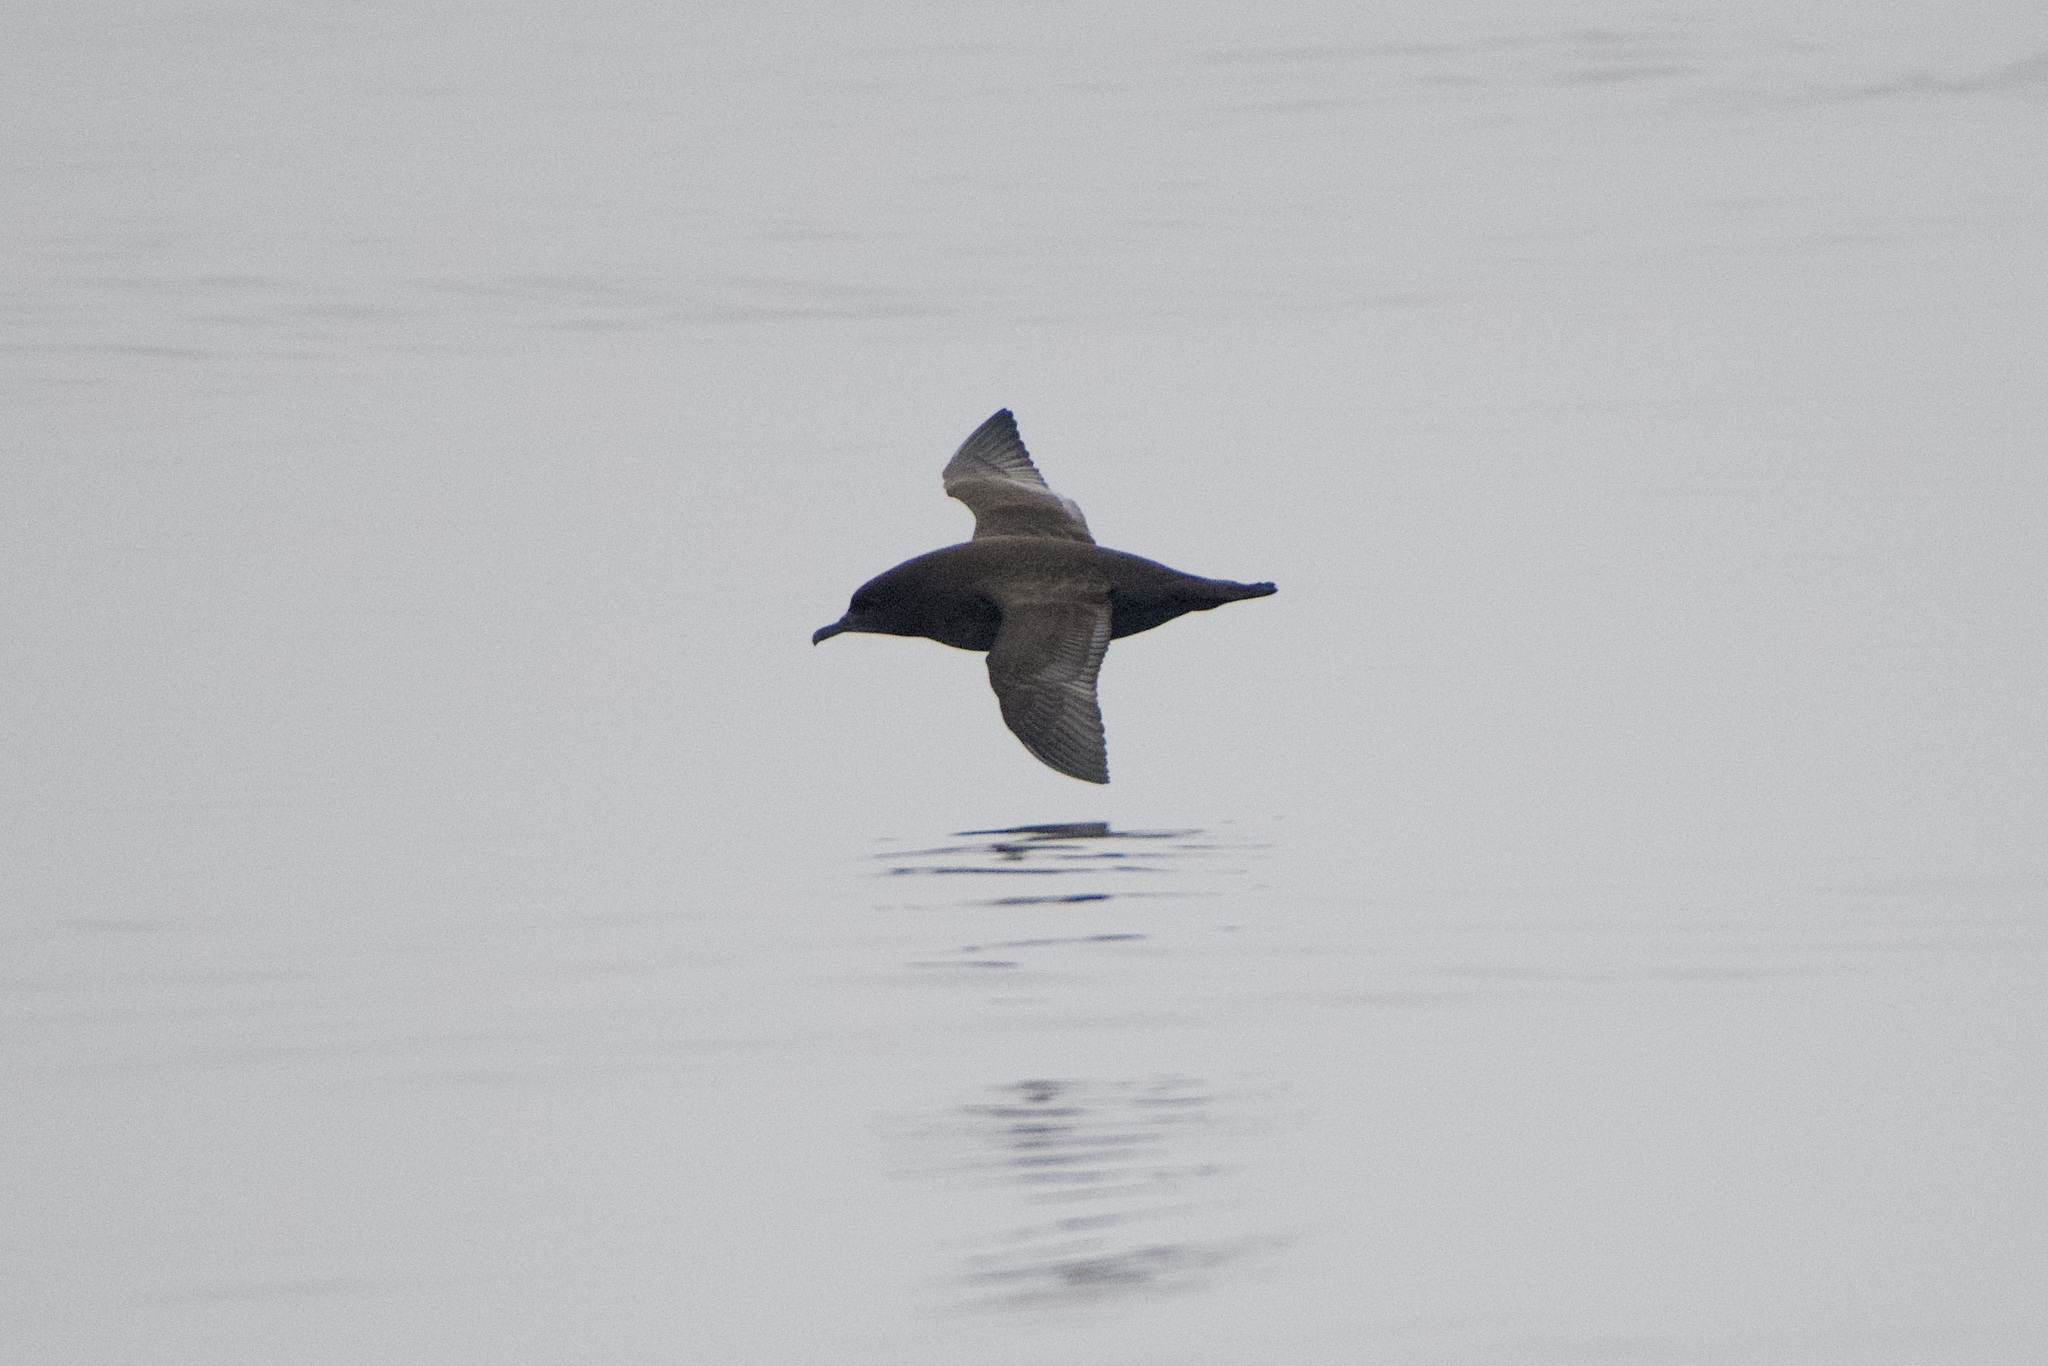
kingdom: Animalia
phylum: Chordata
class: Aves
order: Procellariiformes
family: Procellariidae
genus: Puffinus
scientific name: Puffinus griseus
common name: Sooty shearwater
